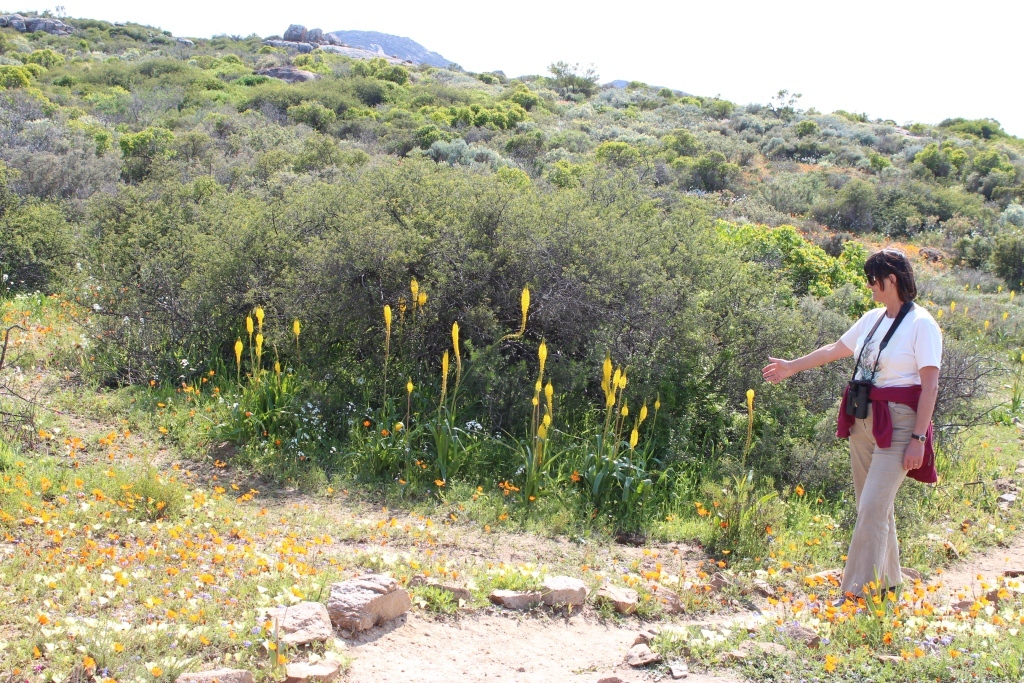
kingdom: Plantae
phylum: Tracheophyta
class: Liliopsida
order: Asparagales
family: Asphodelaceae
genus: Bulbinella
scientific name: Bulbinella latifolia
